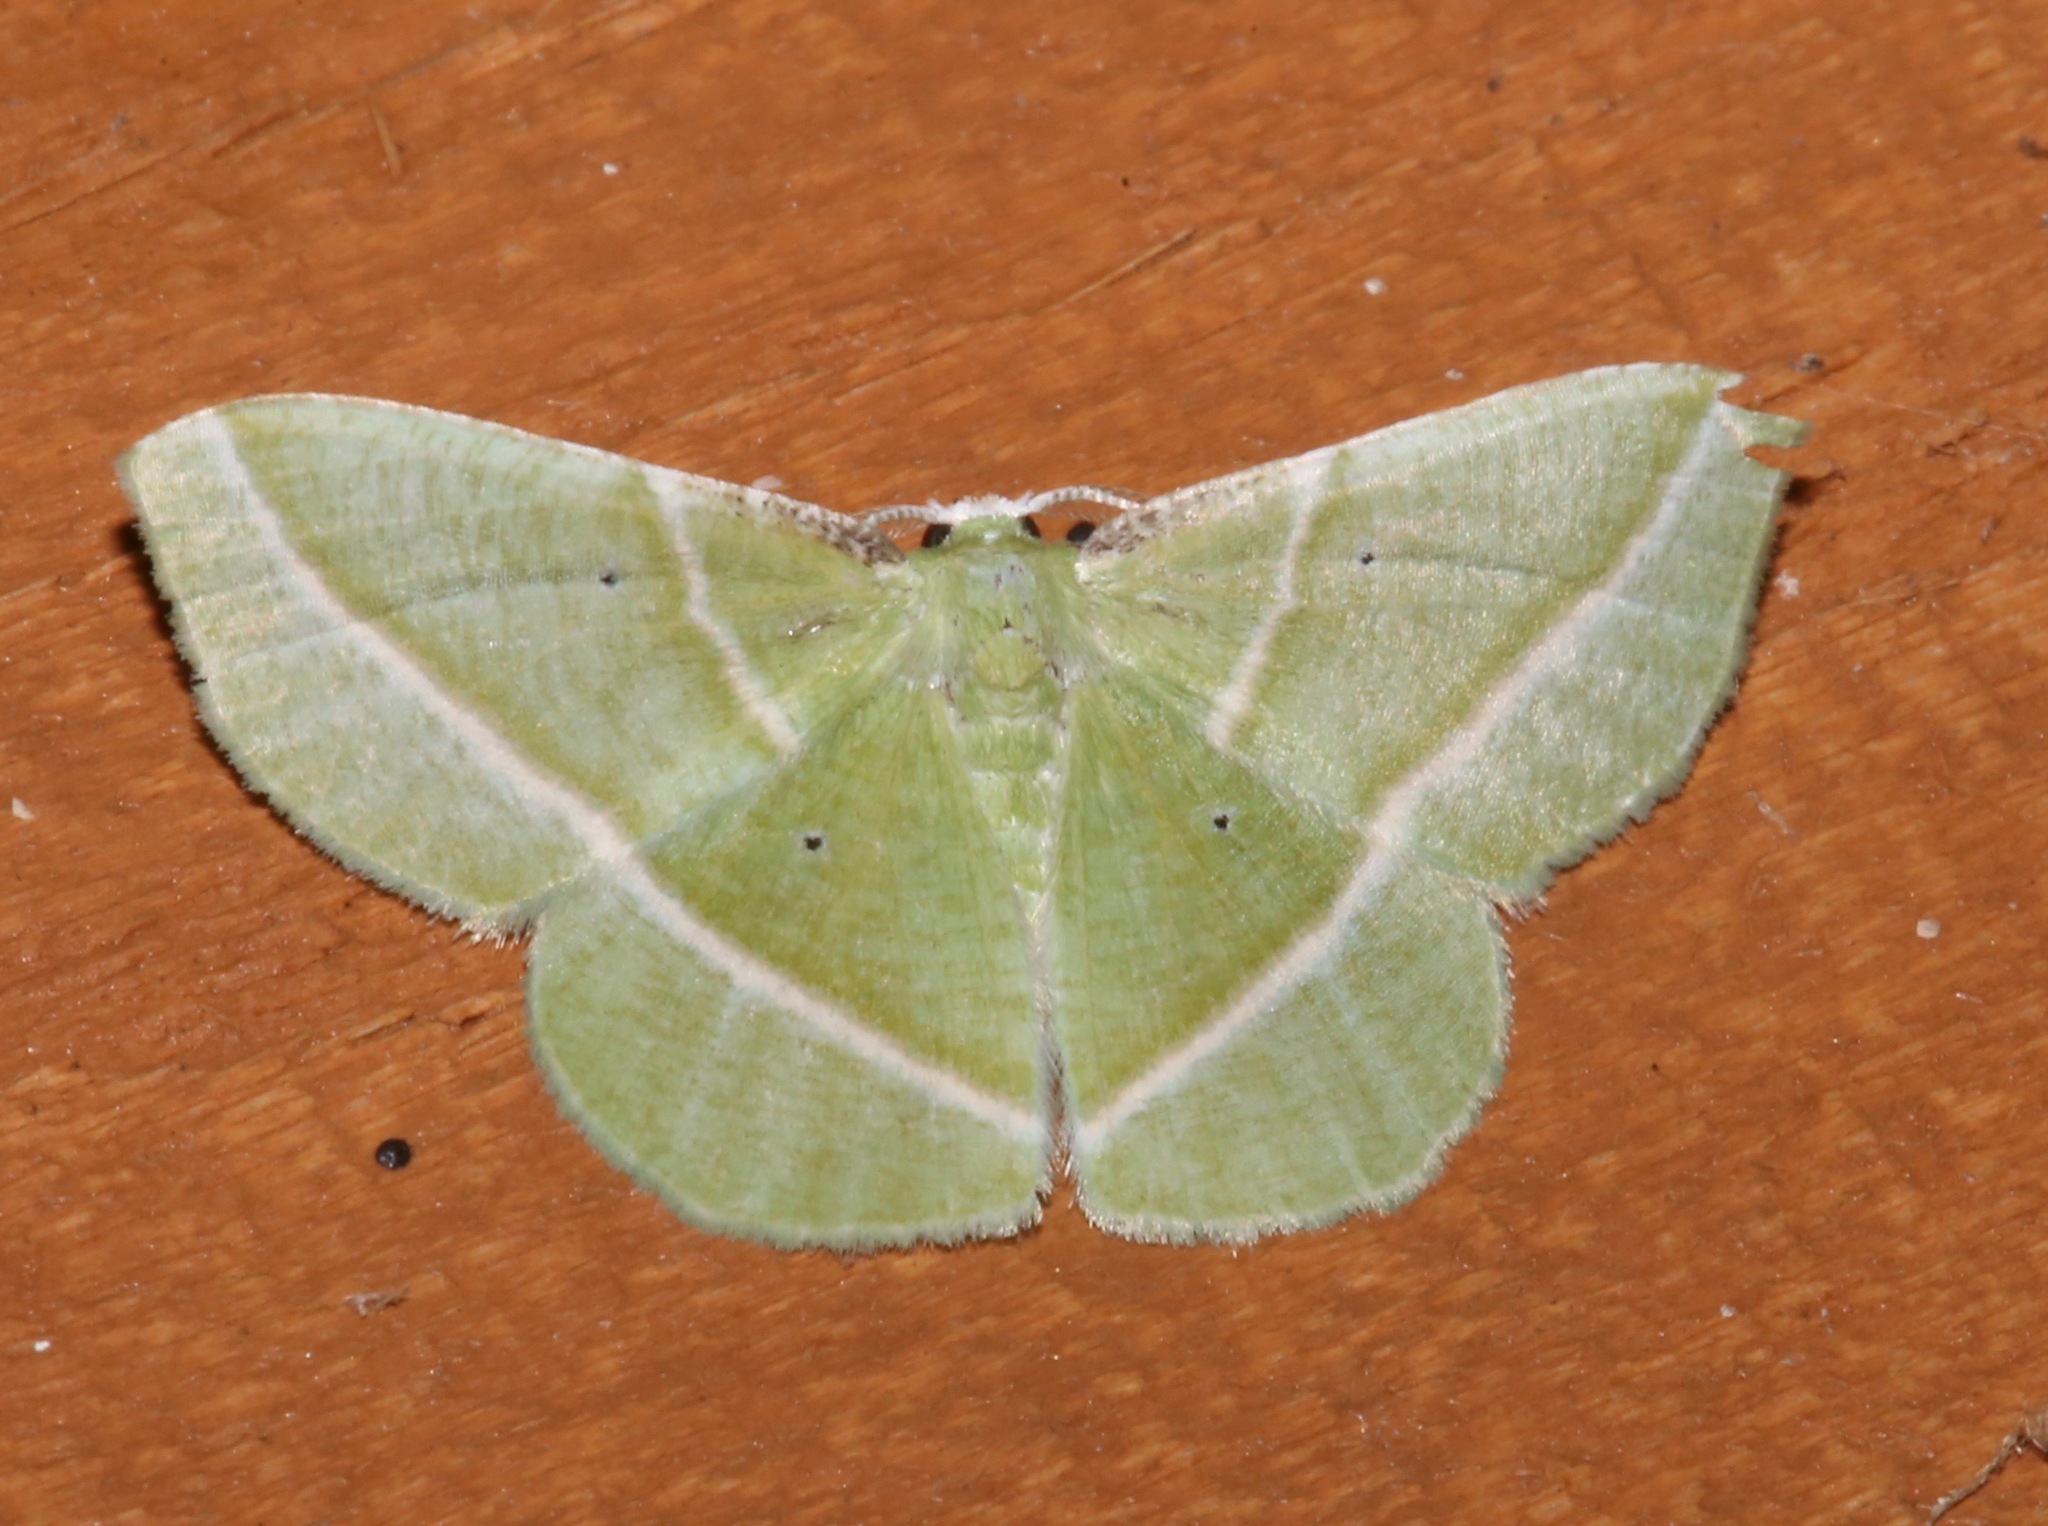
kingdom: Animalia
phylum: Arthropoda
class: Insecta
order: Lepidoptera
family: Geometridae
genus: Dichorda
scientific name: Dichorda iridaria
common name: Showy emerald
